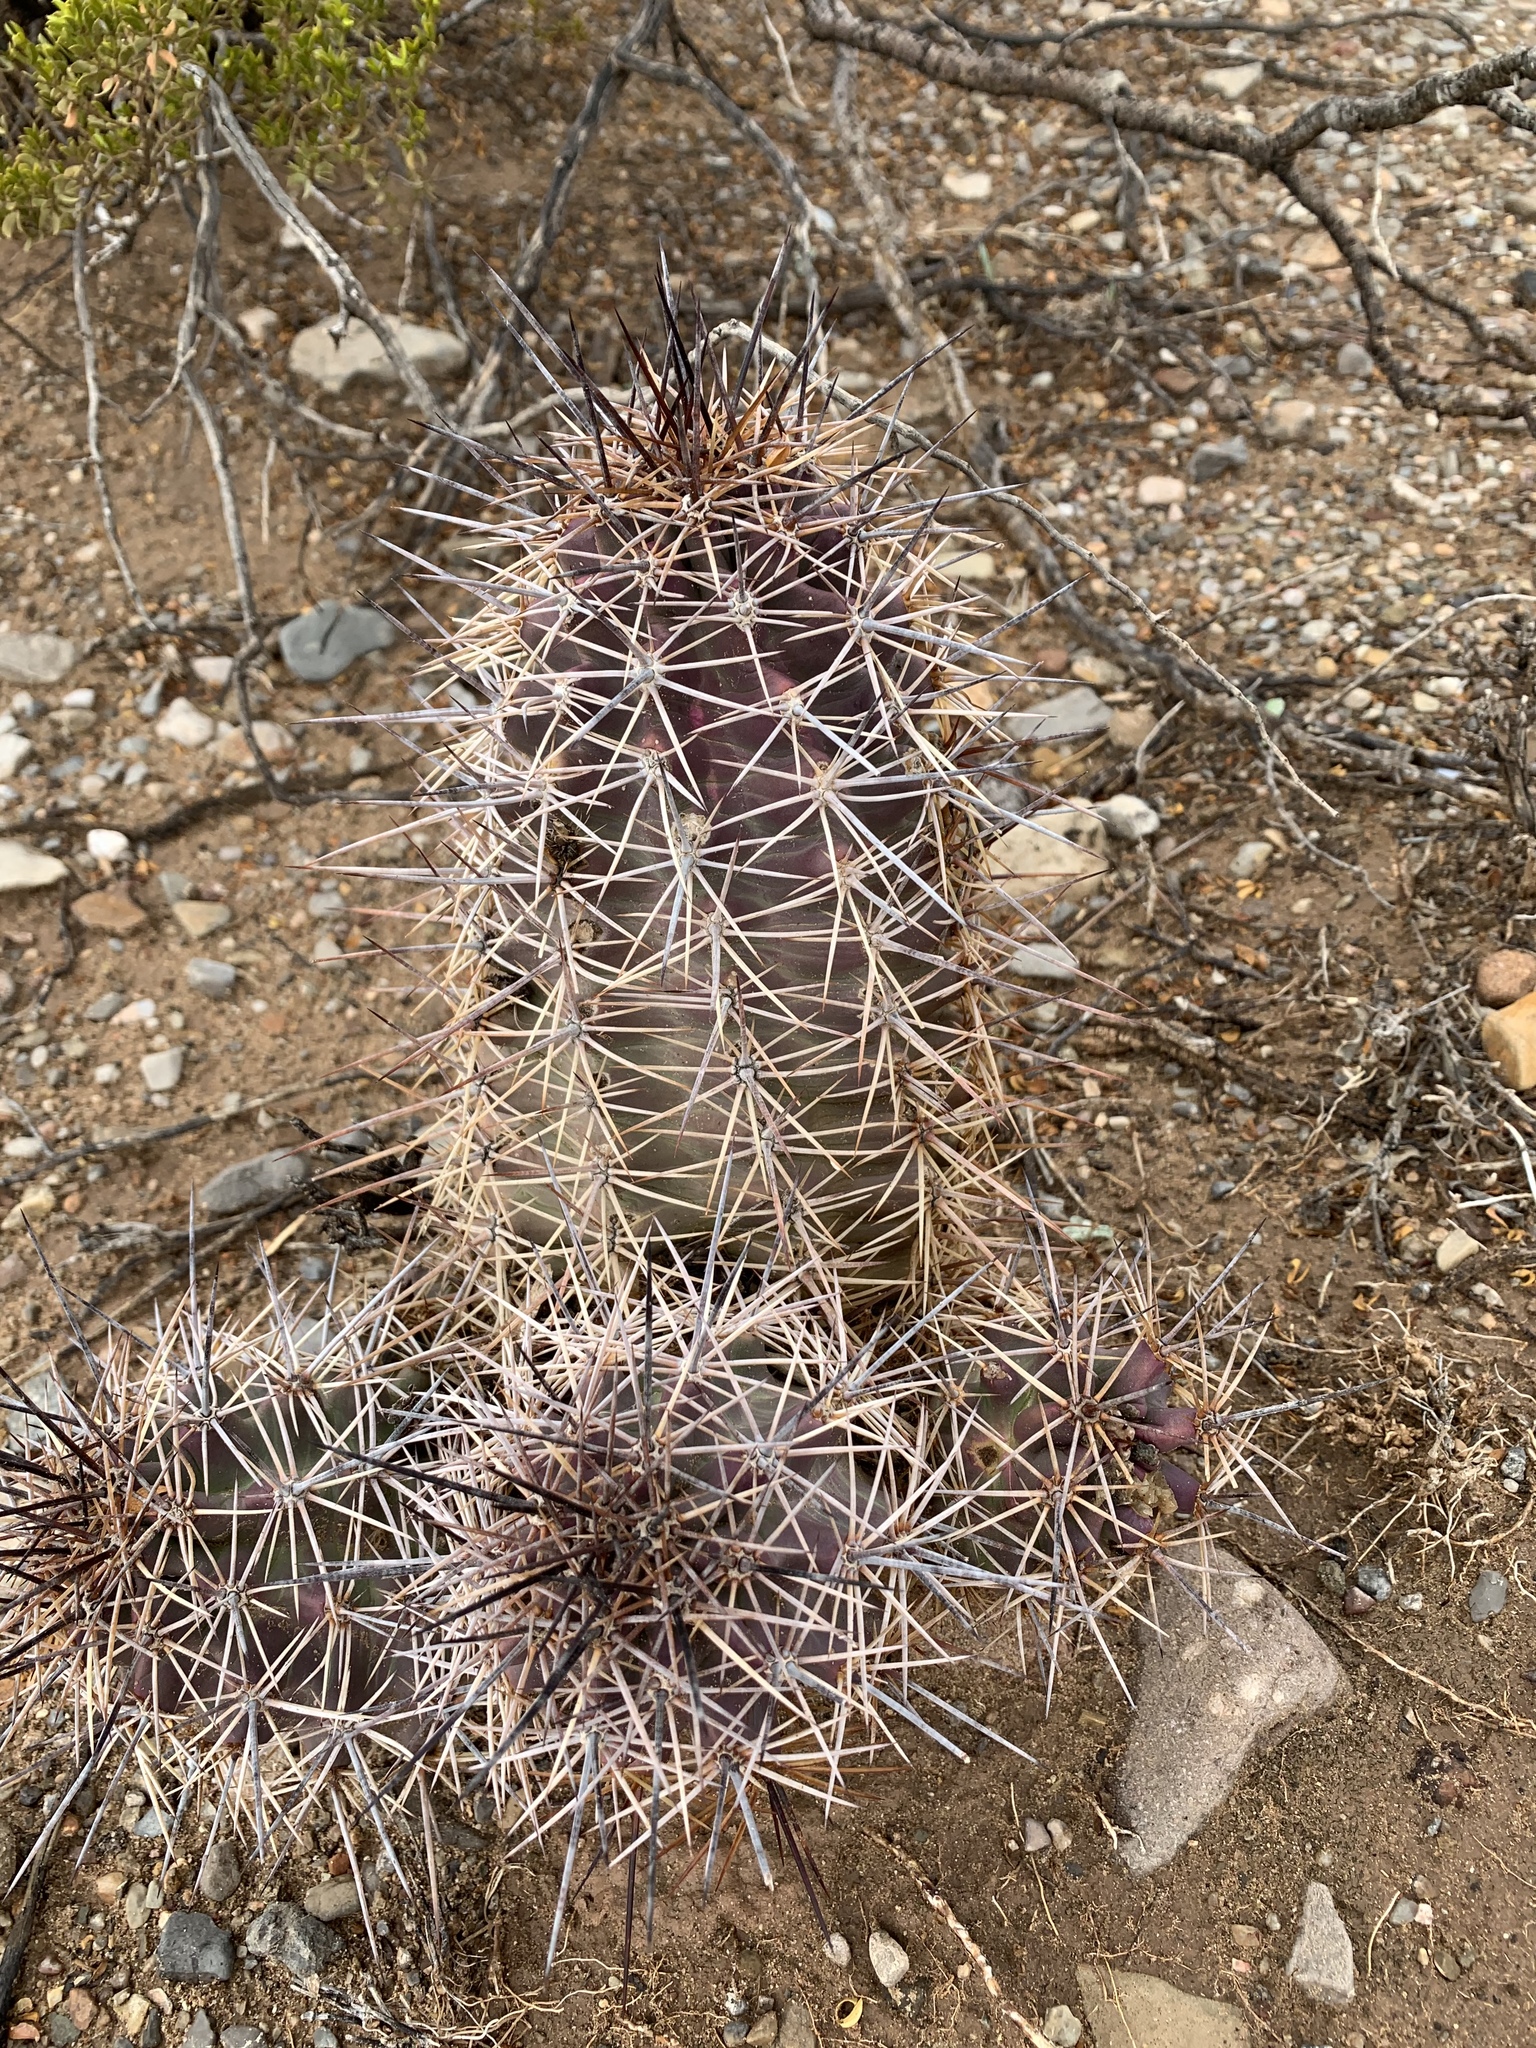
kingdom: Plantae
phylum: Tracheophyta
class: Magnoliopsida
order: Caryophyllales
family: Cactaceae
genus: Echinocereus
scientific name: Echinocereus coccineus
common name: Scarlet hedgehog cactus
